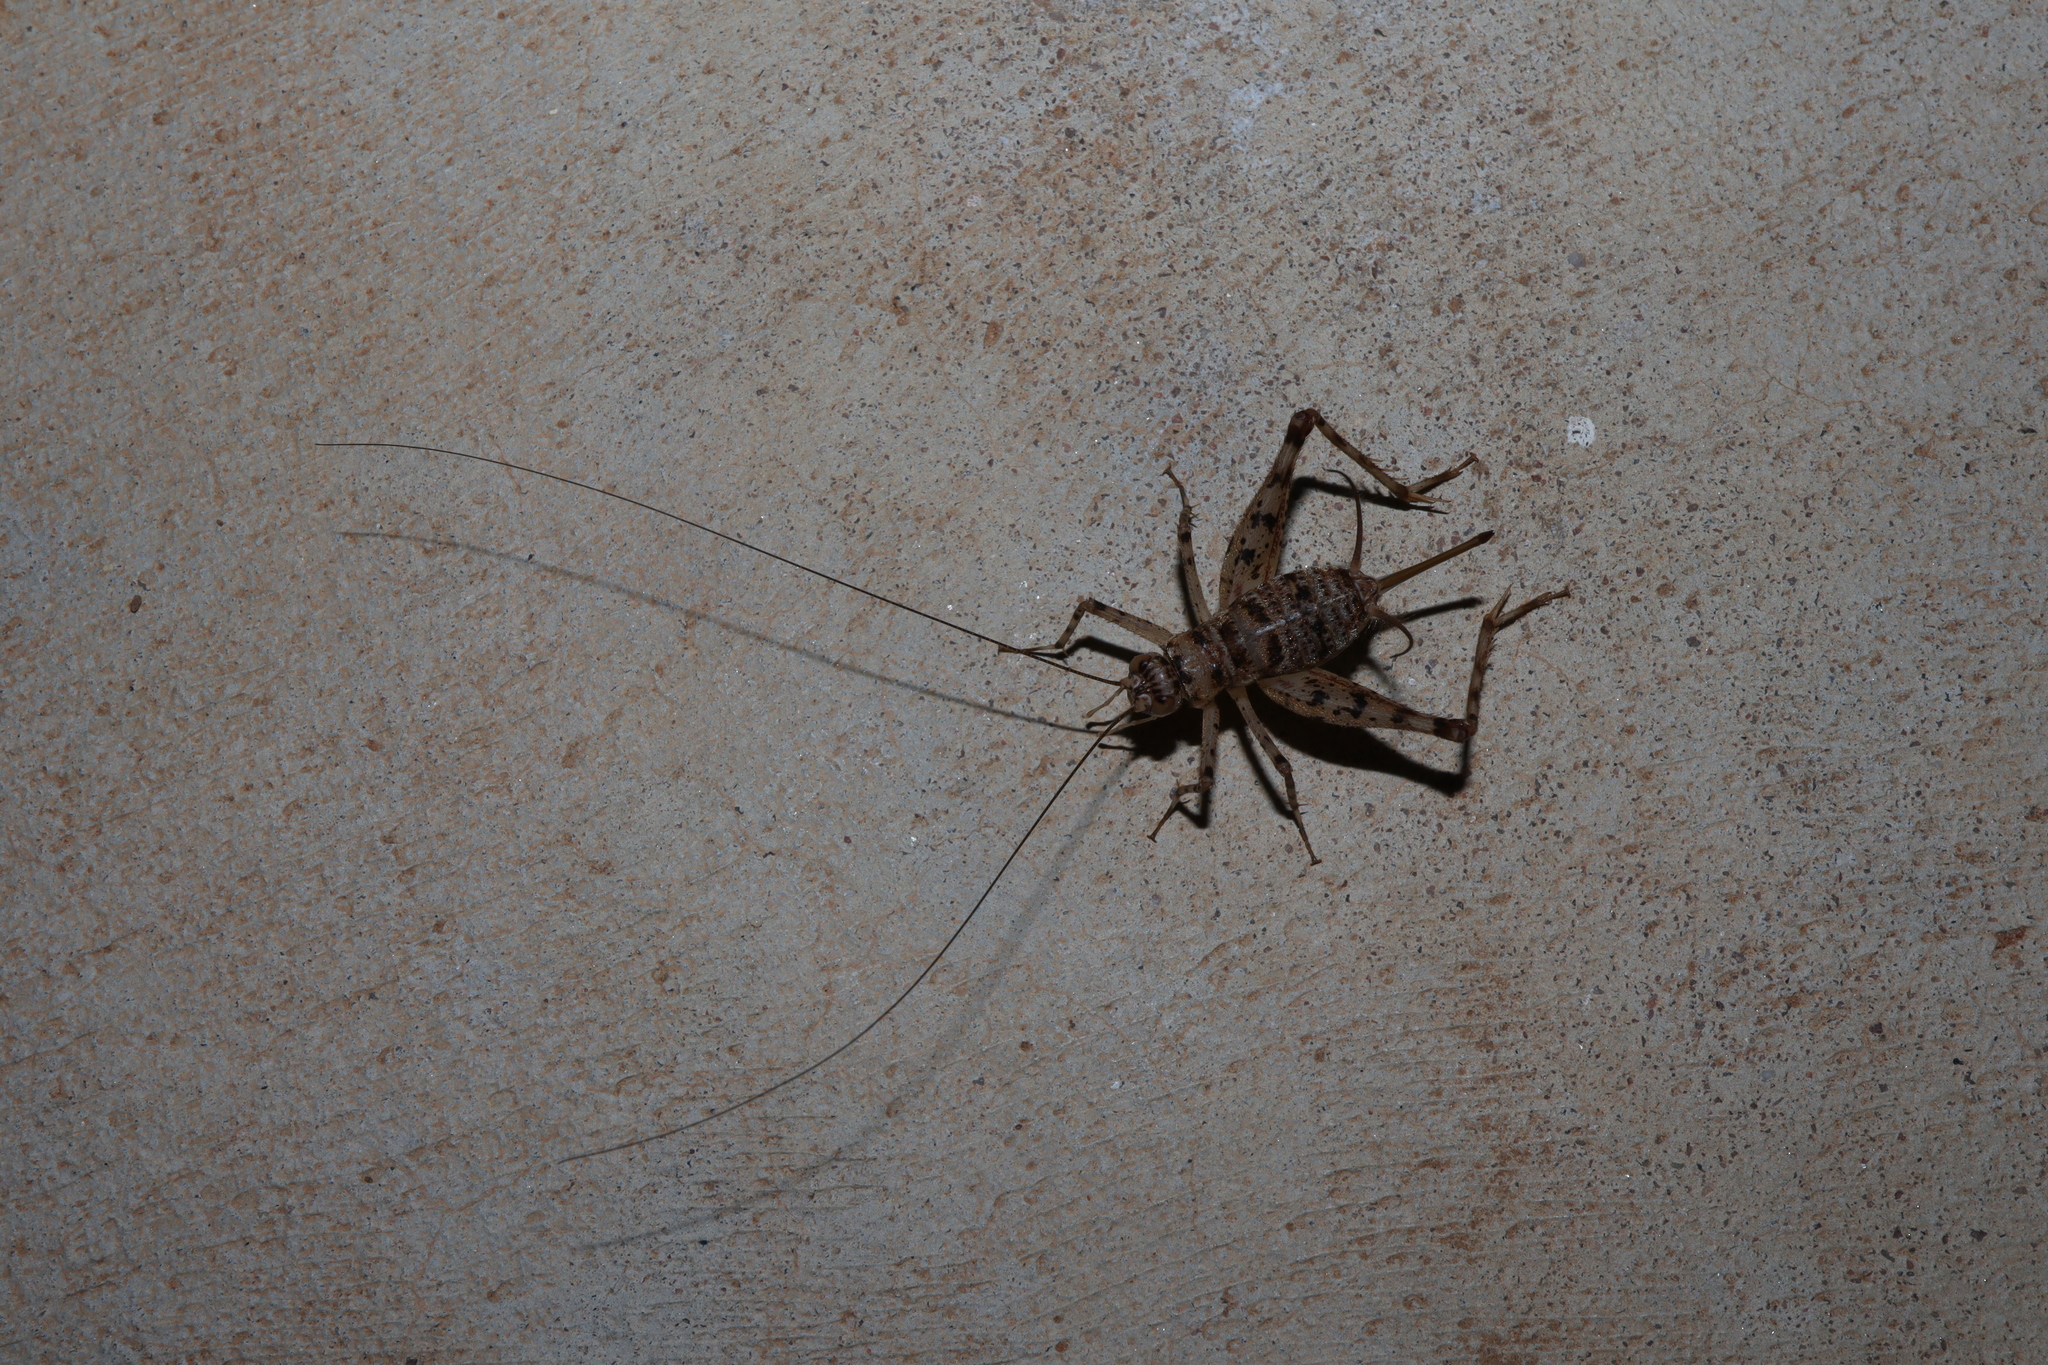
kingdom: Animalia
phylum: Arthropoda
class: Insecta
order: Orthoptera
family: Phalangopsidae
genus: Endacusta
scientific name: Endacusta pindana
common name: Spider cricket
